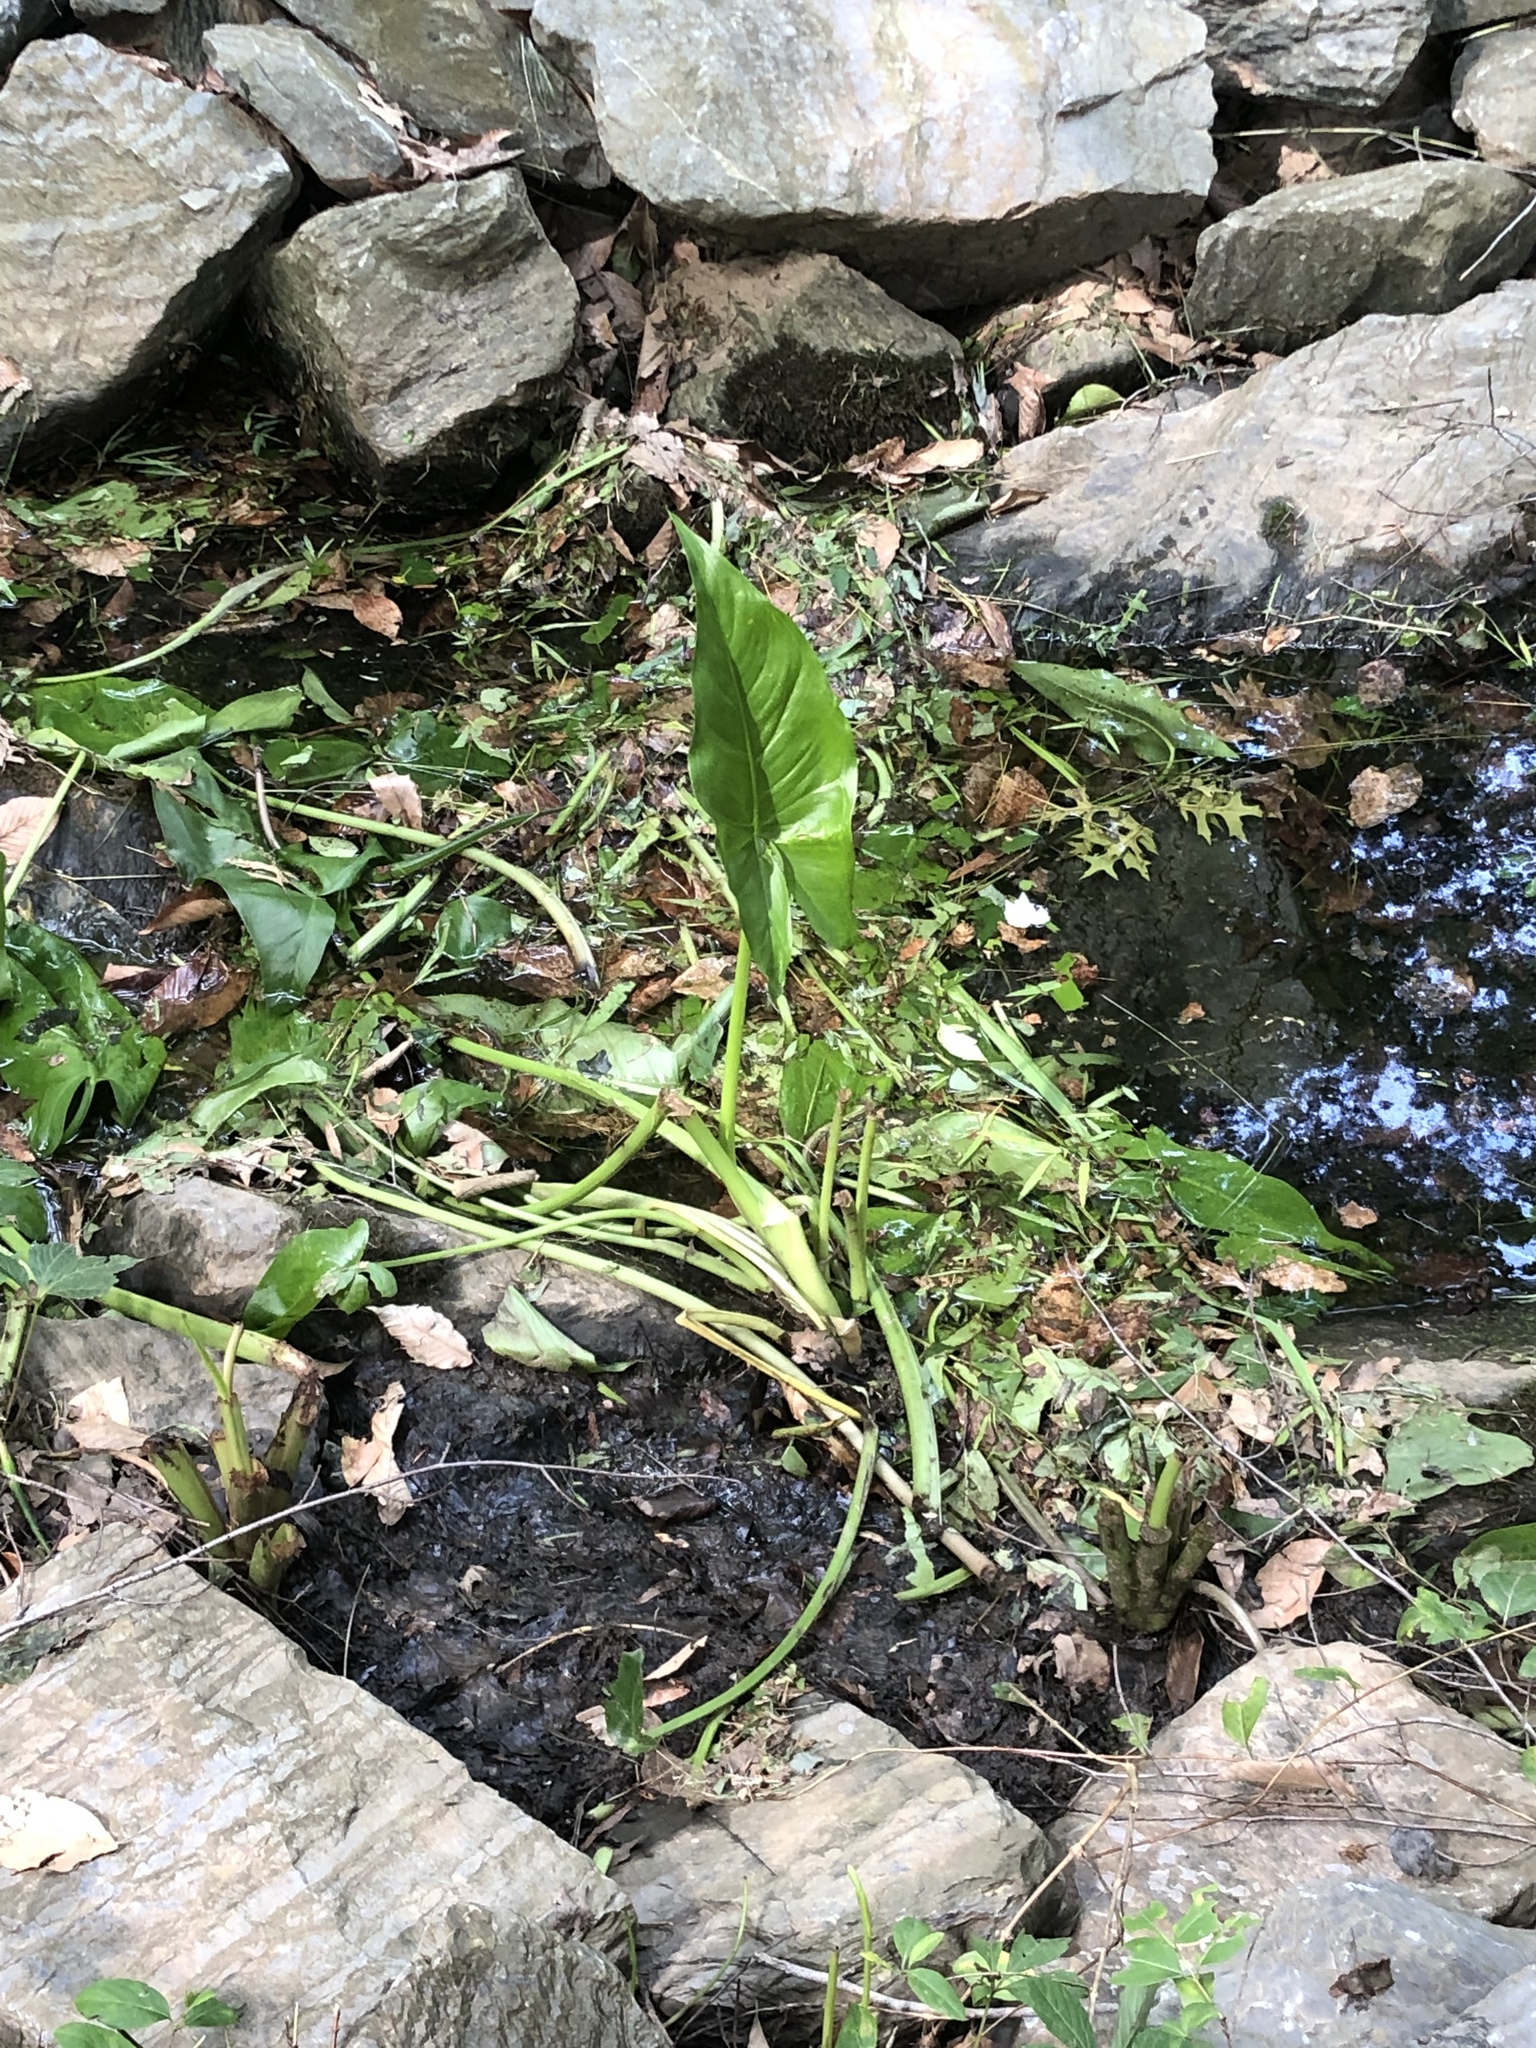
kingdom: Plantae
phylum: Tracheophyta
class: Liliopsida
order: Alismatales
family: Araceae
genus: Peltandra
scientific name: Peltandra virginica
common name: Arrow arum
